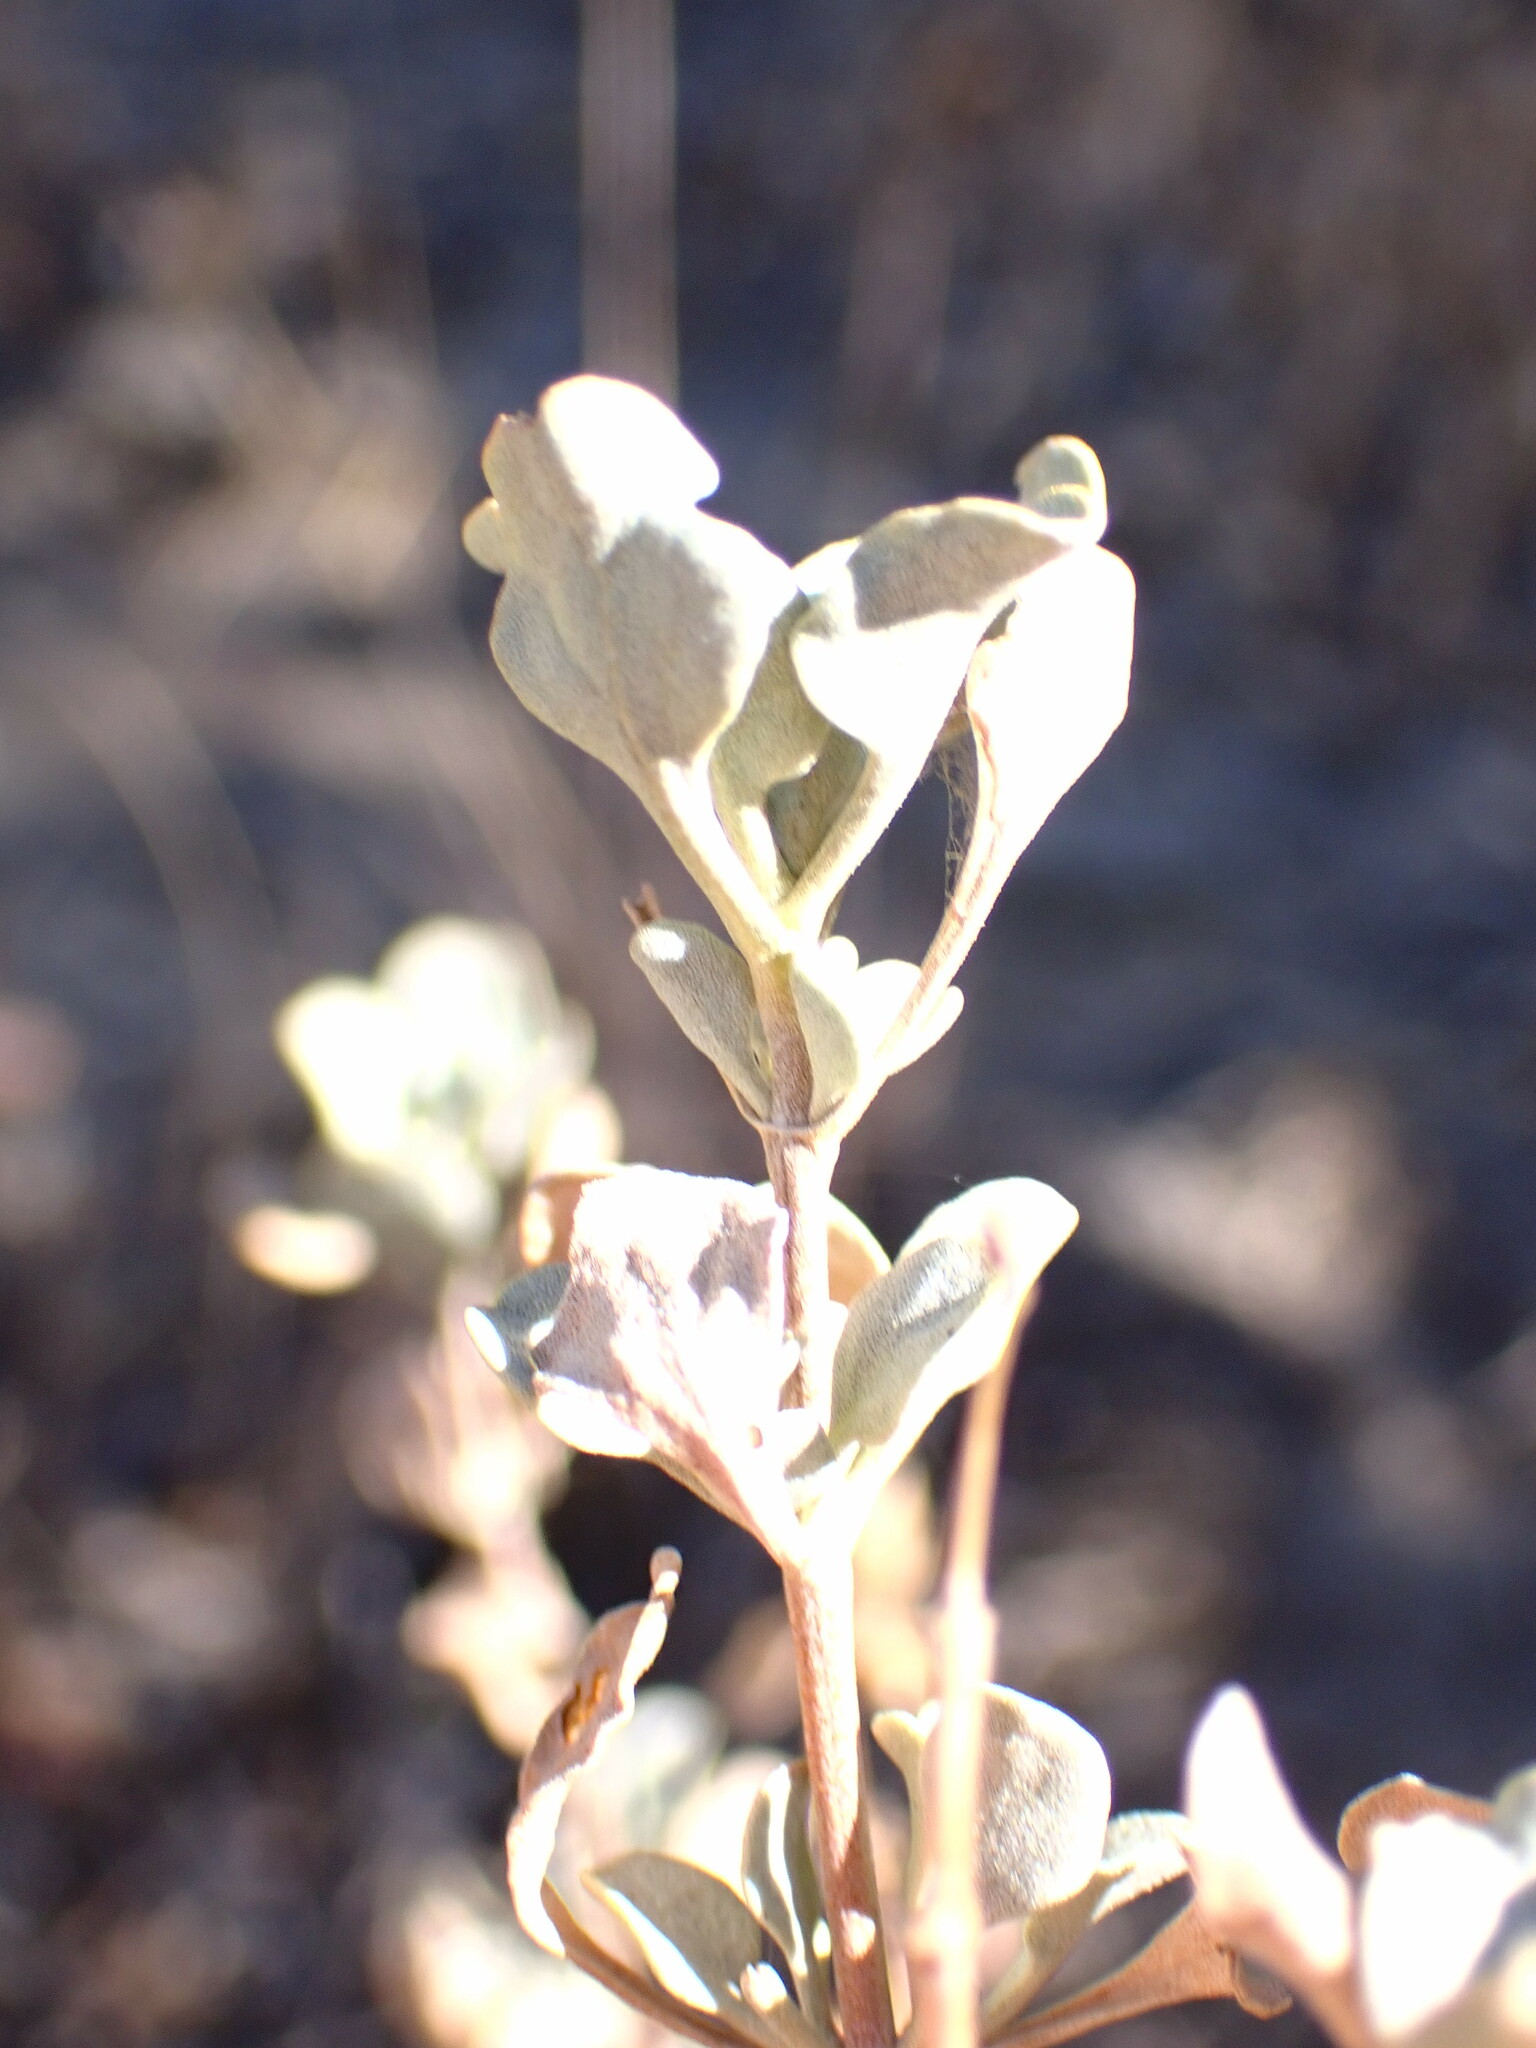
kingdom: Plantae
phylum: Tracheophyta
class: Magnoliopsida
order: Lamiales
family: Lamiaceae
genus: Salvia
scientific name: Salvia dorrii
